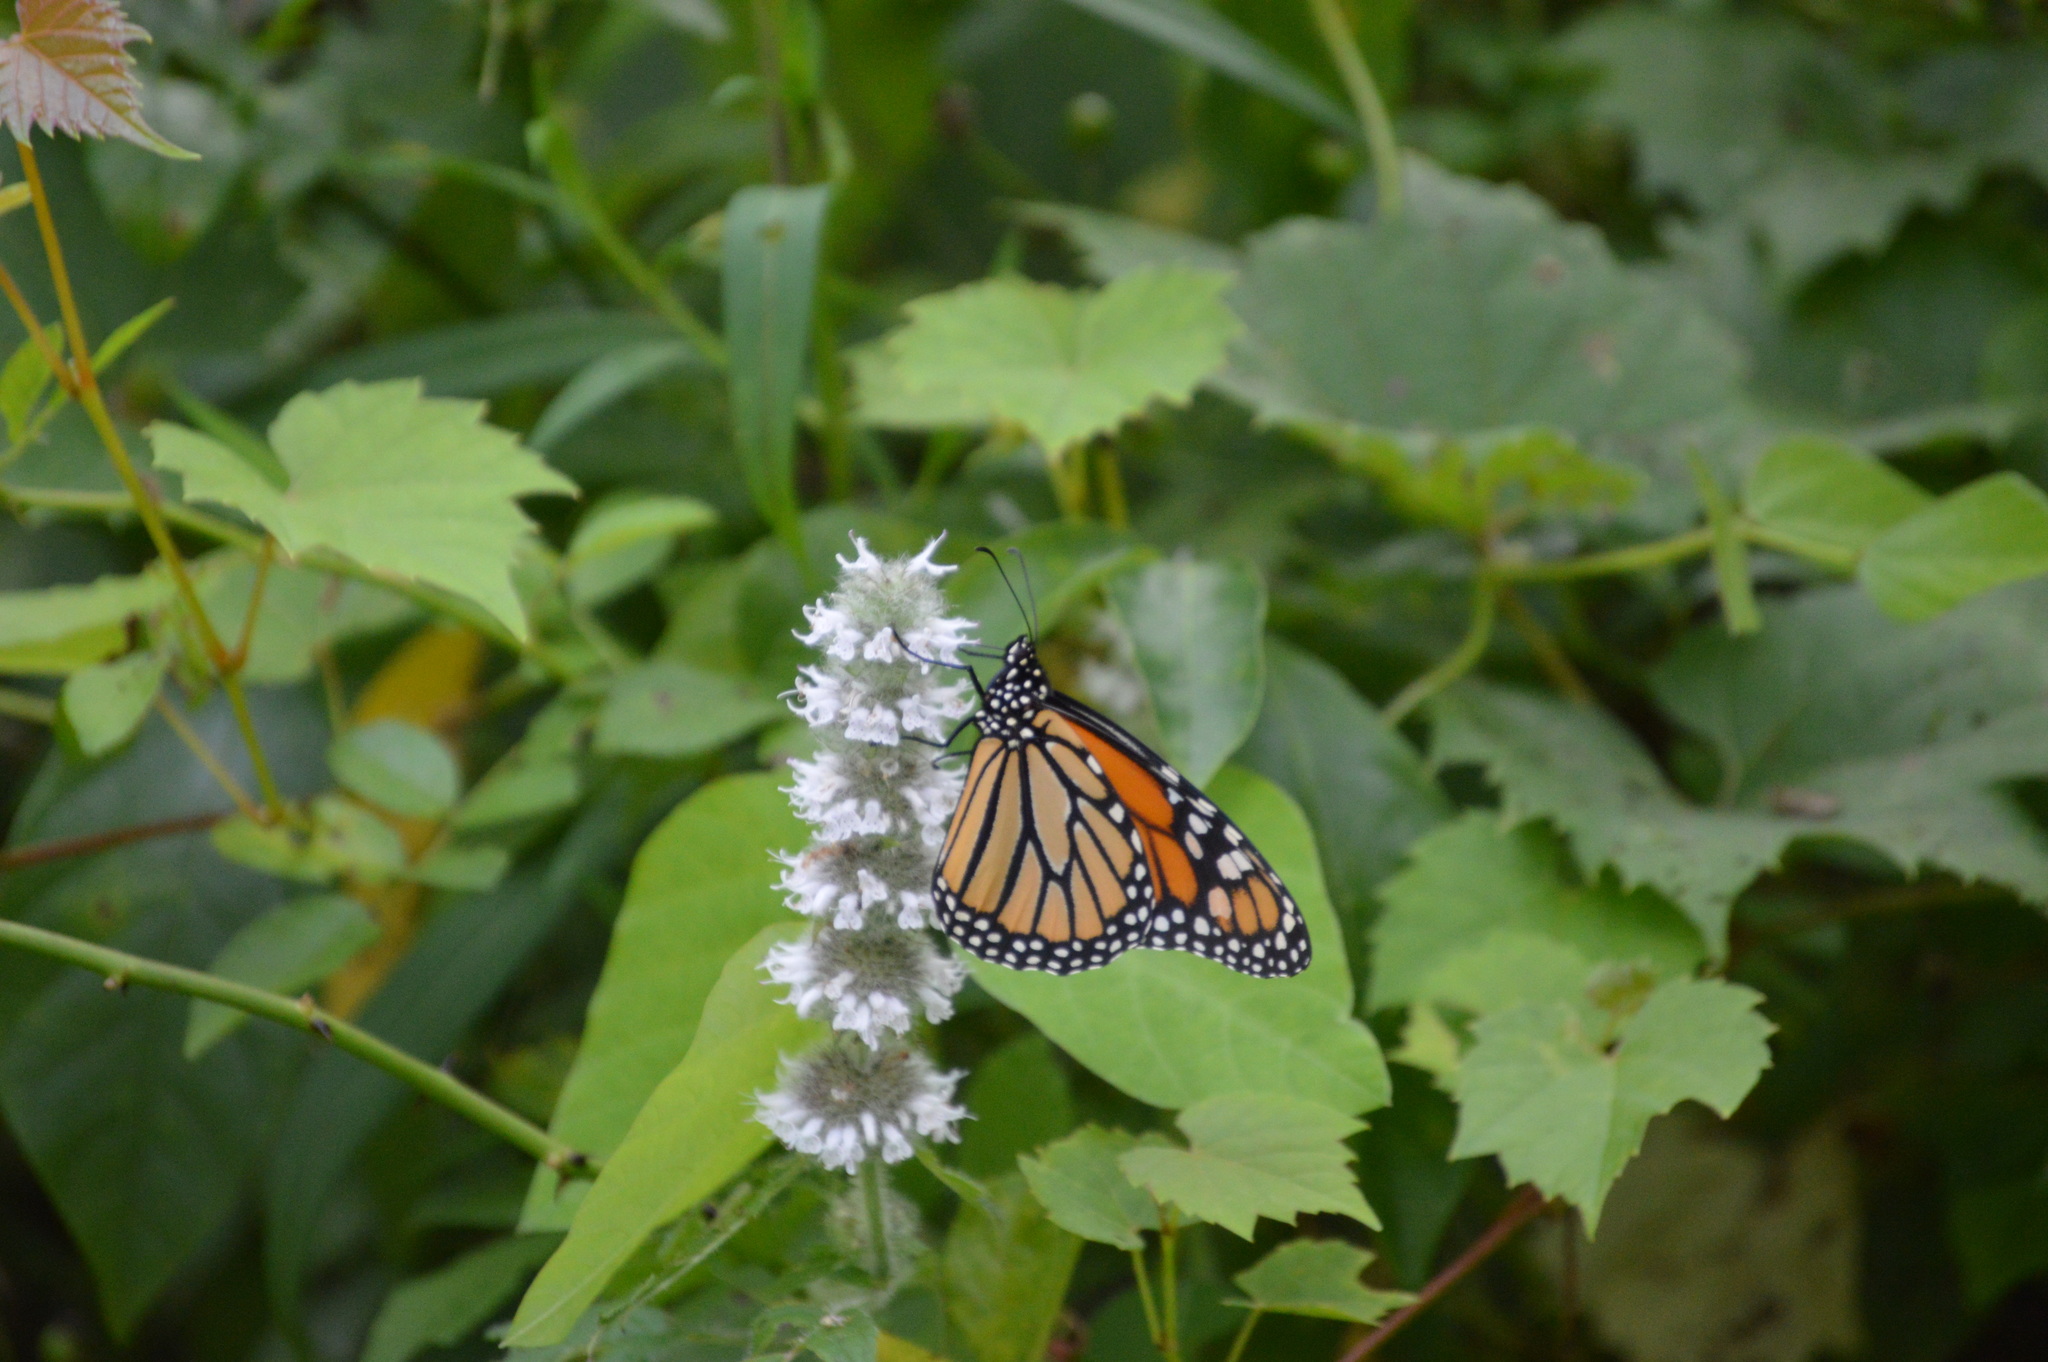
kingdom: Animalia
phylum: Arthropoda
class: Insecta
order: Lepidoptera
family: Nymphalidae
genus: Danaus
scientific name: Danaus plexippus
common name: Monarch
